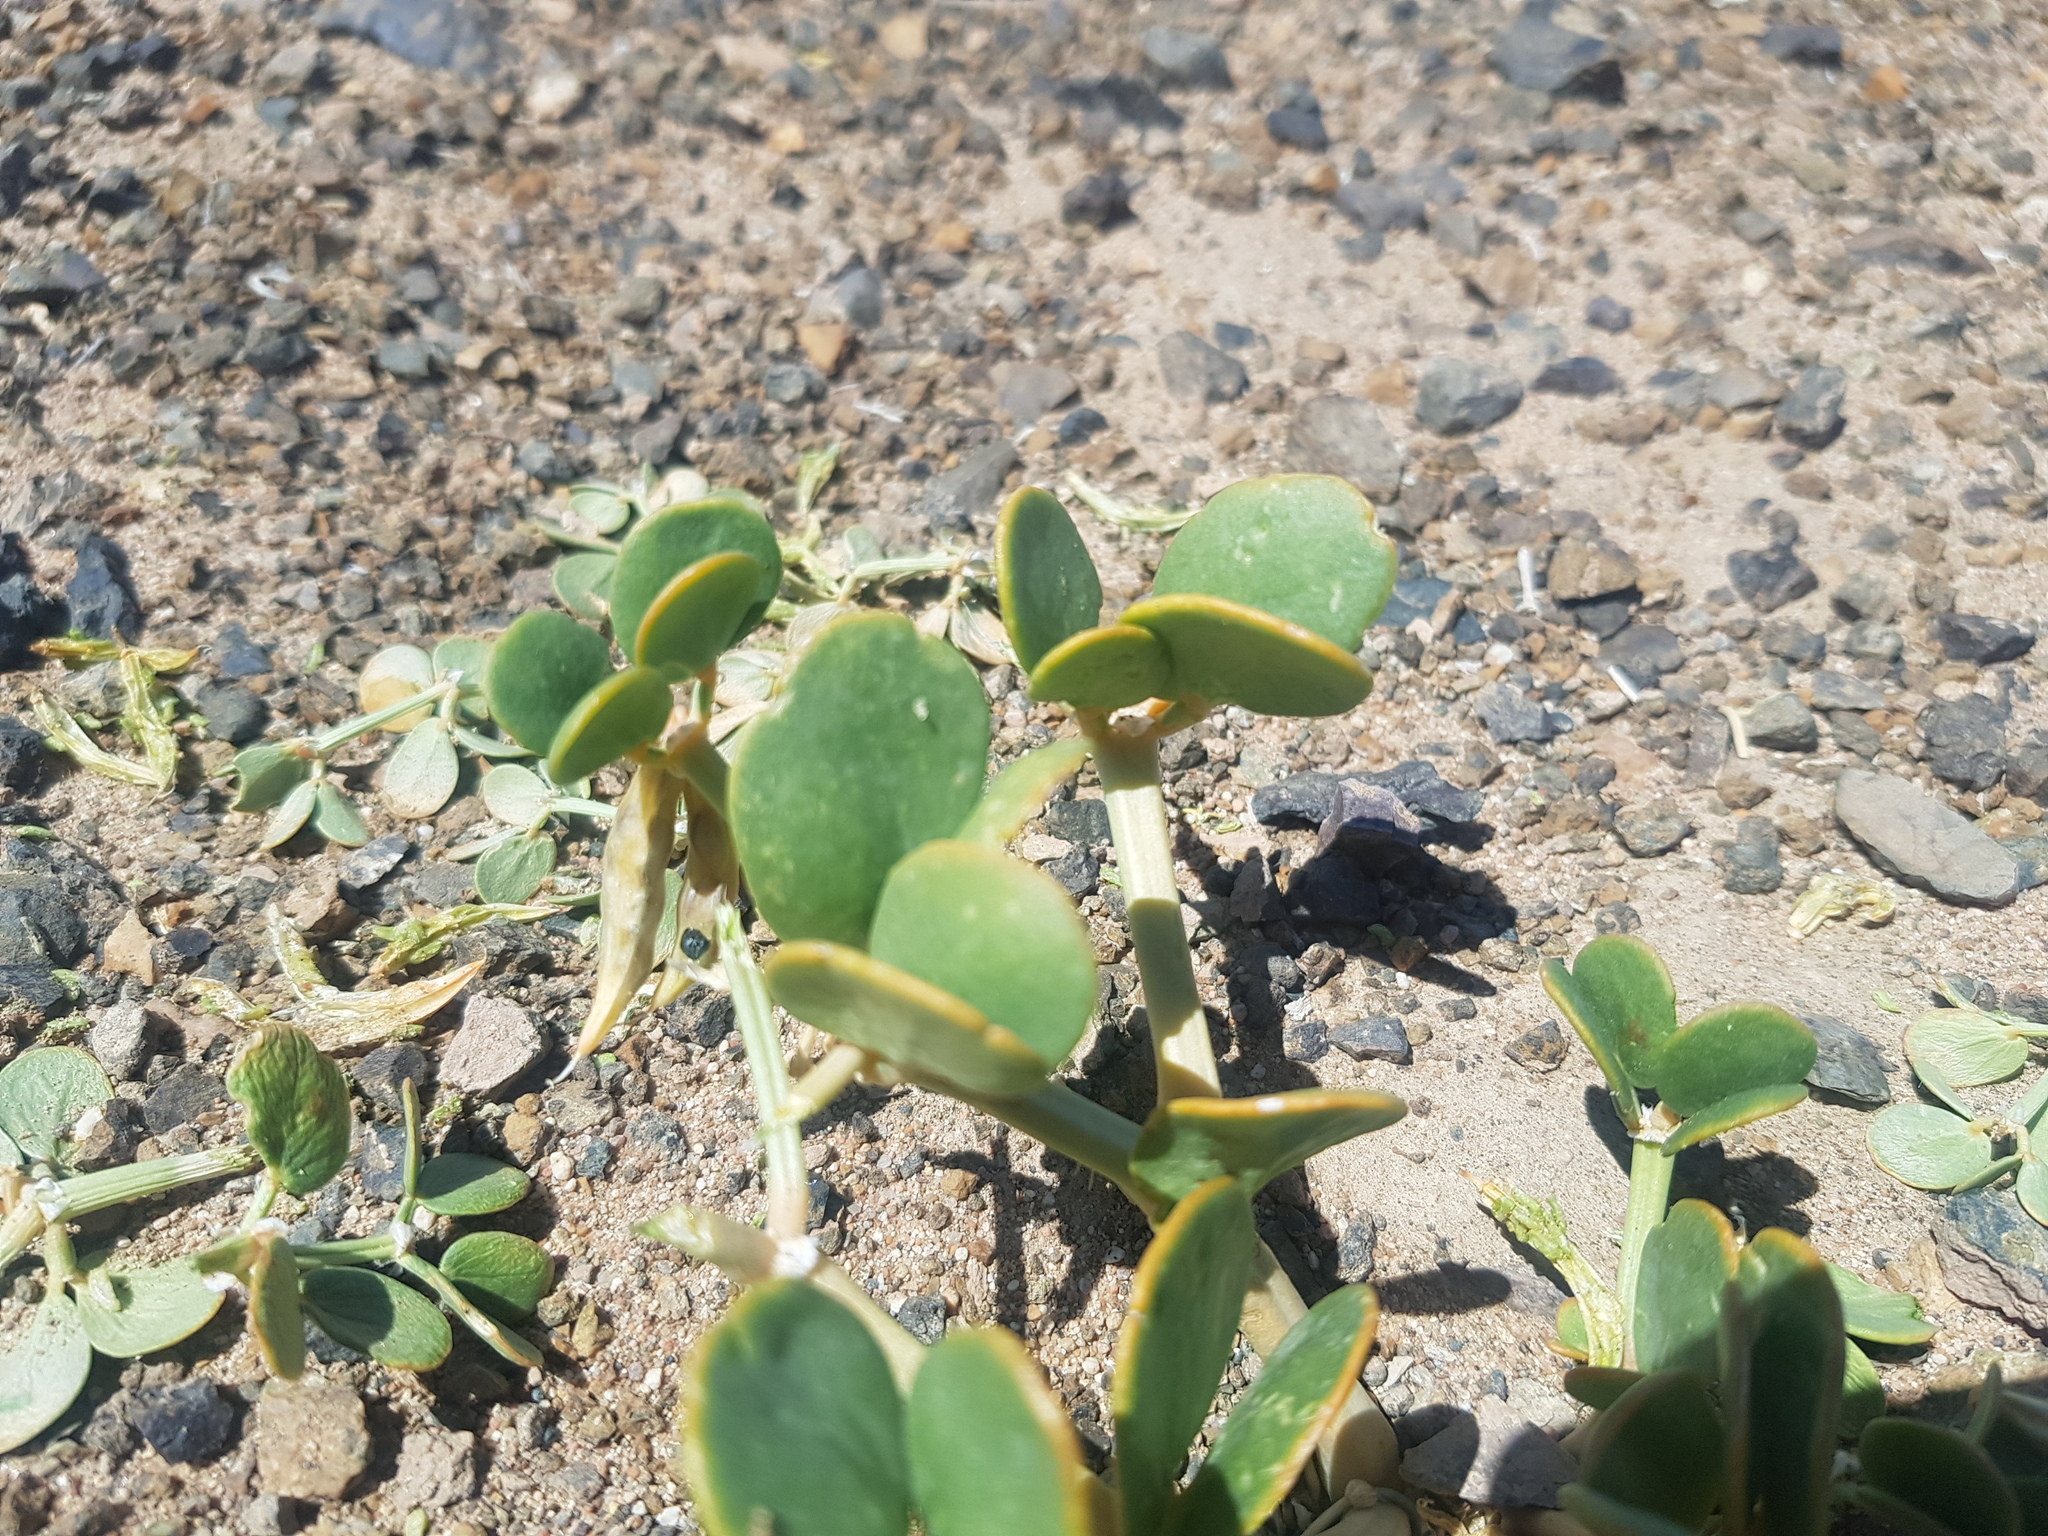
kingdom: Plantae
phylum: Tracheophyta
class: Magnoliopsida
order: Zygophyllales
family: Zygophyllaceae
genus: Zygophyllum
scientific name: Zygophyllum rosowii
